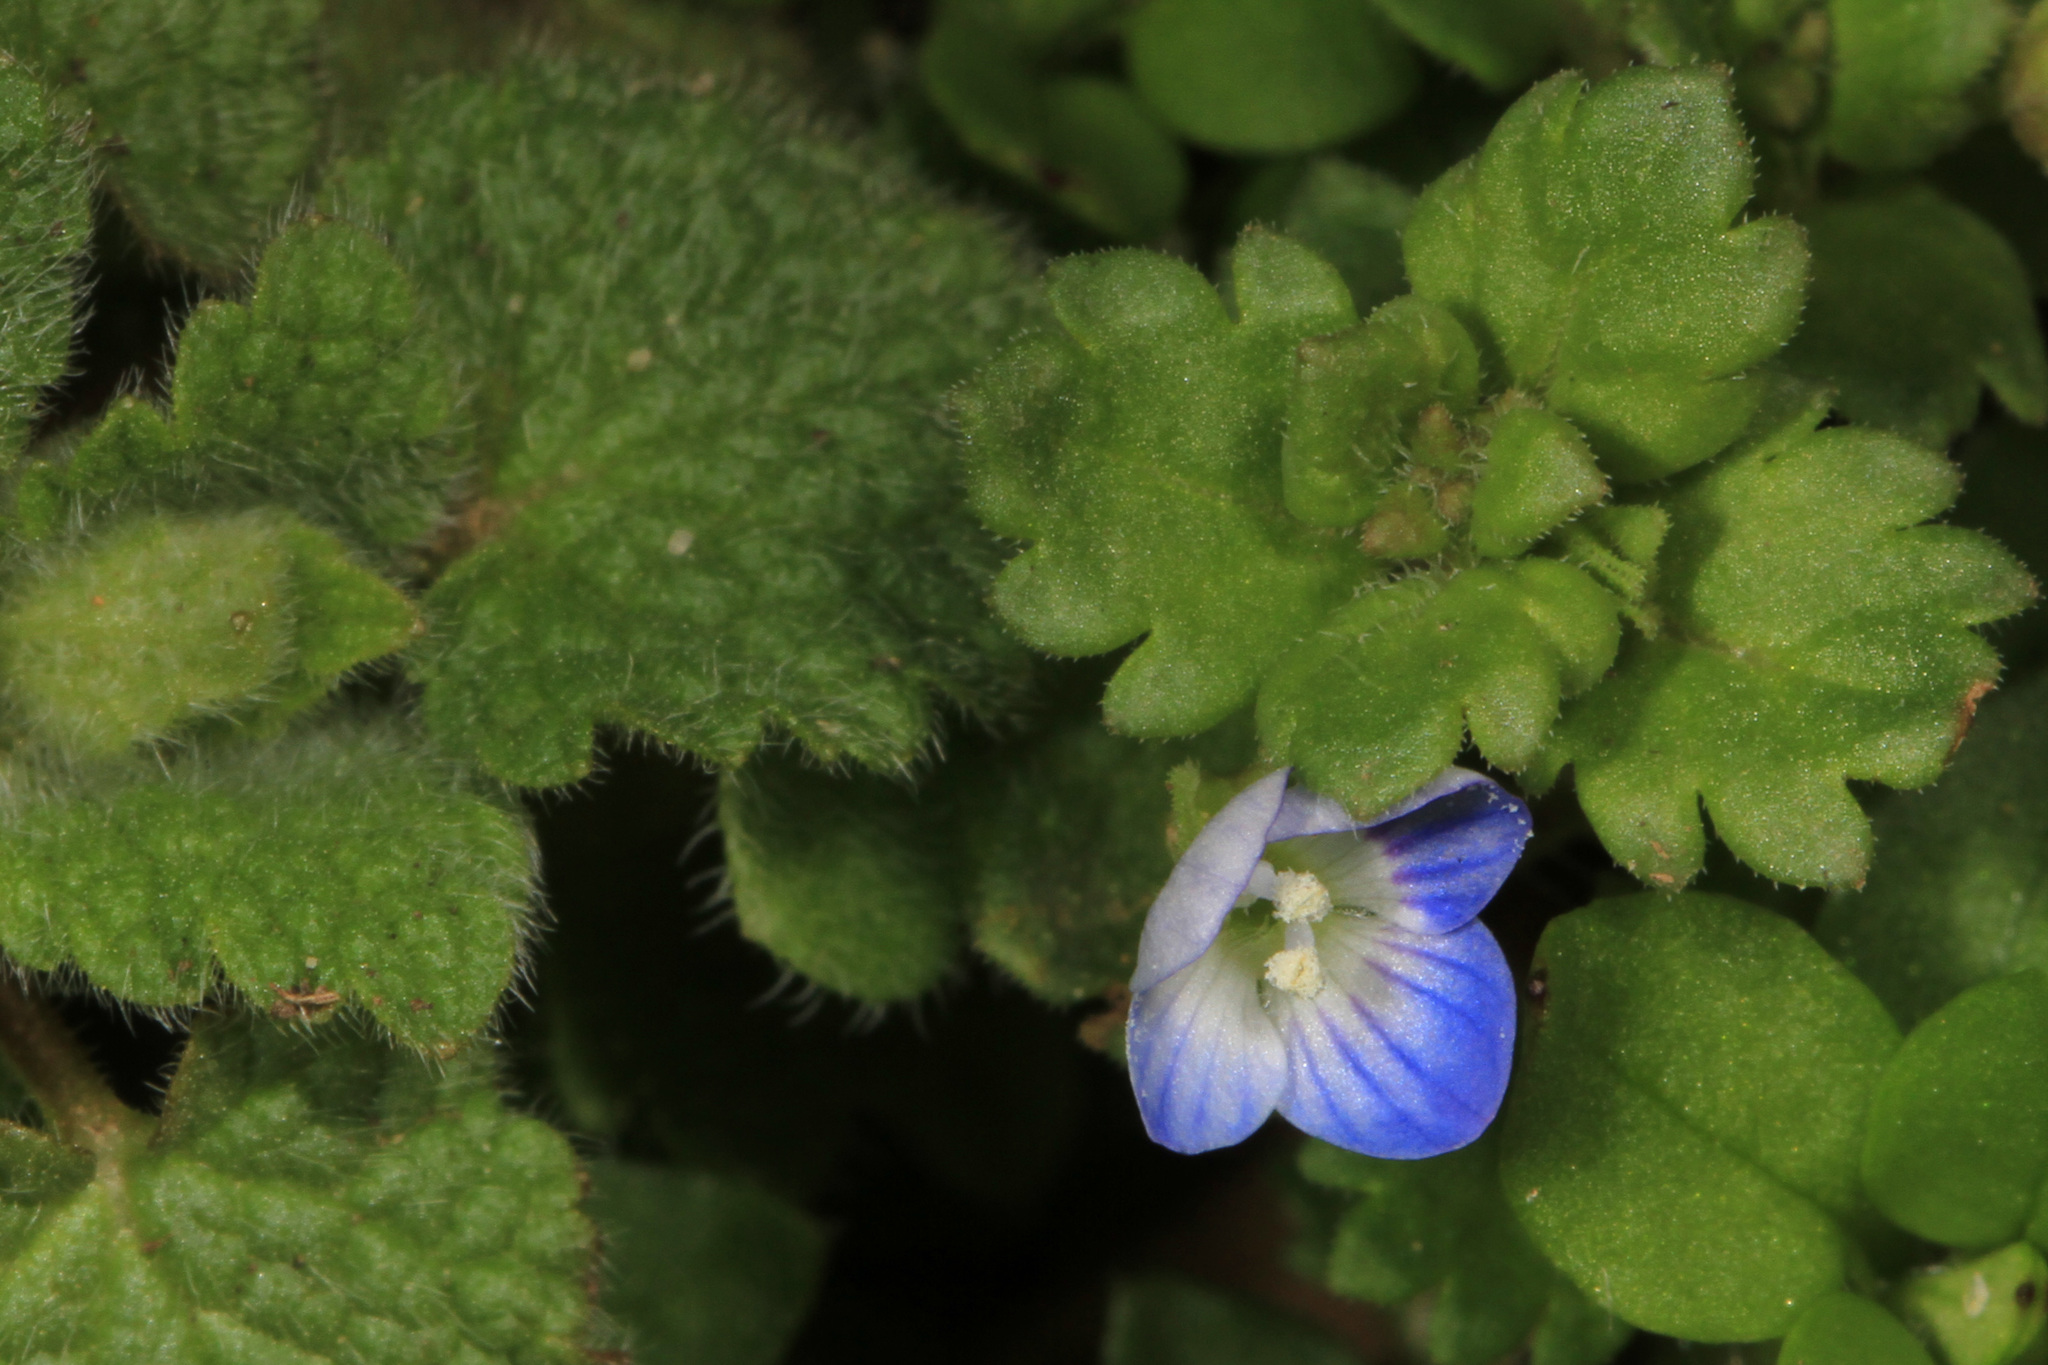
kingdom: Plantae
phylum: Tracheophyta
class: Magnoliopsida
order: Lamiales
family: Plantaginaceae
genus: Veronica
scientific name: Veronica persica
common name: Common field-speedwell
